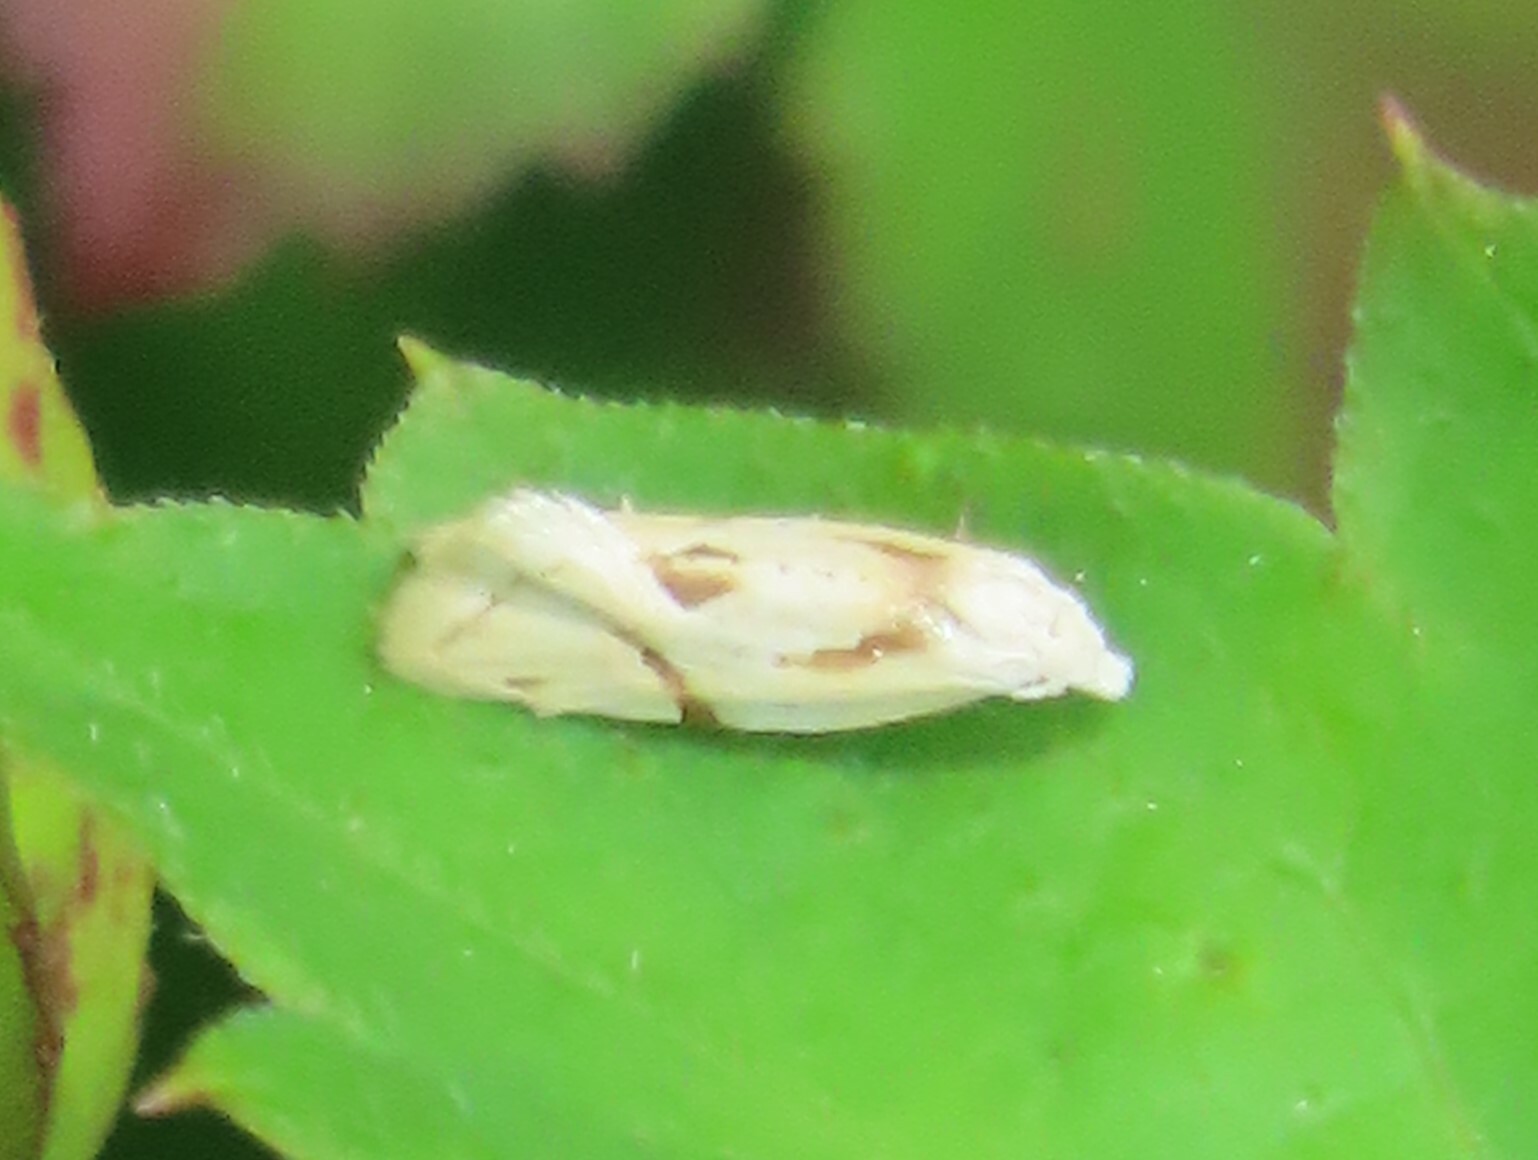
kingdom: Animalia
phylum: Arthropoda
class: Insecta
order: Lepidoptera
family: Tortricidae
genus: Aethes
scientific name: Aethes seriatana
